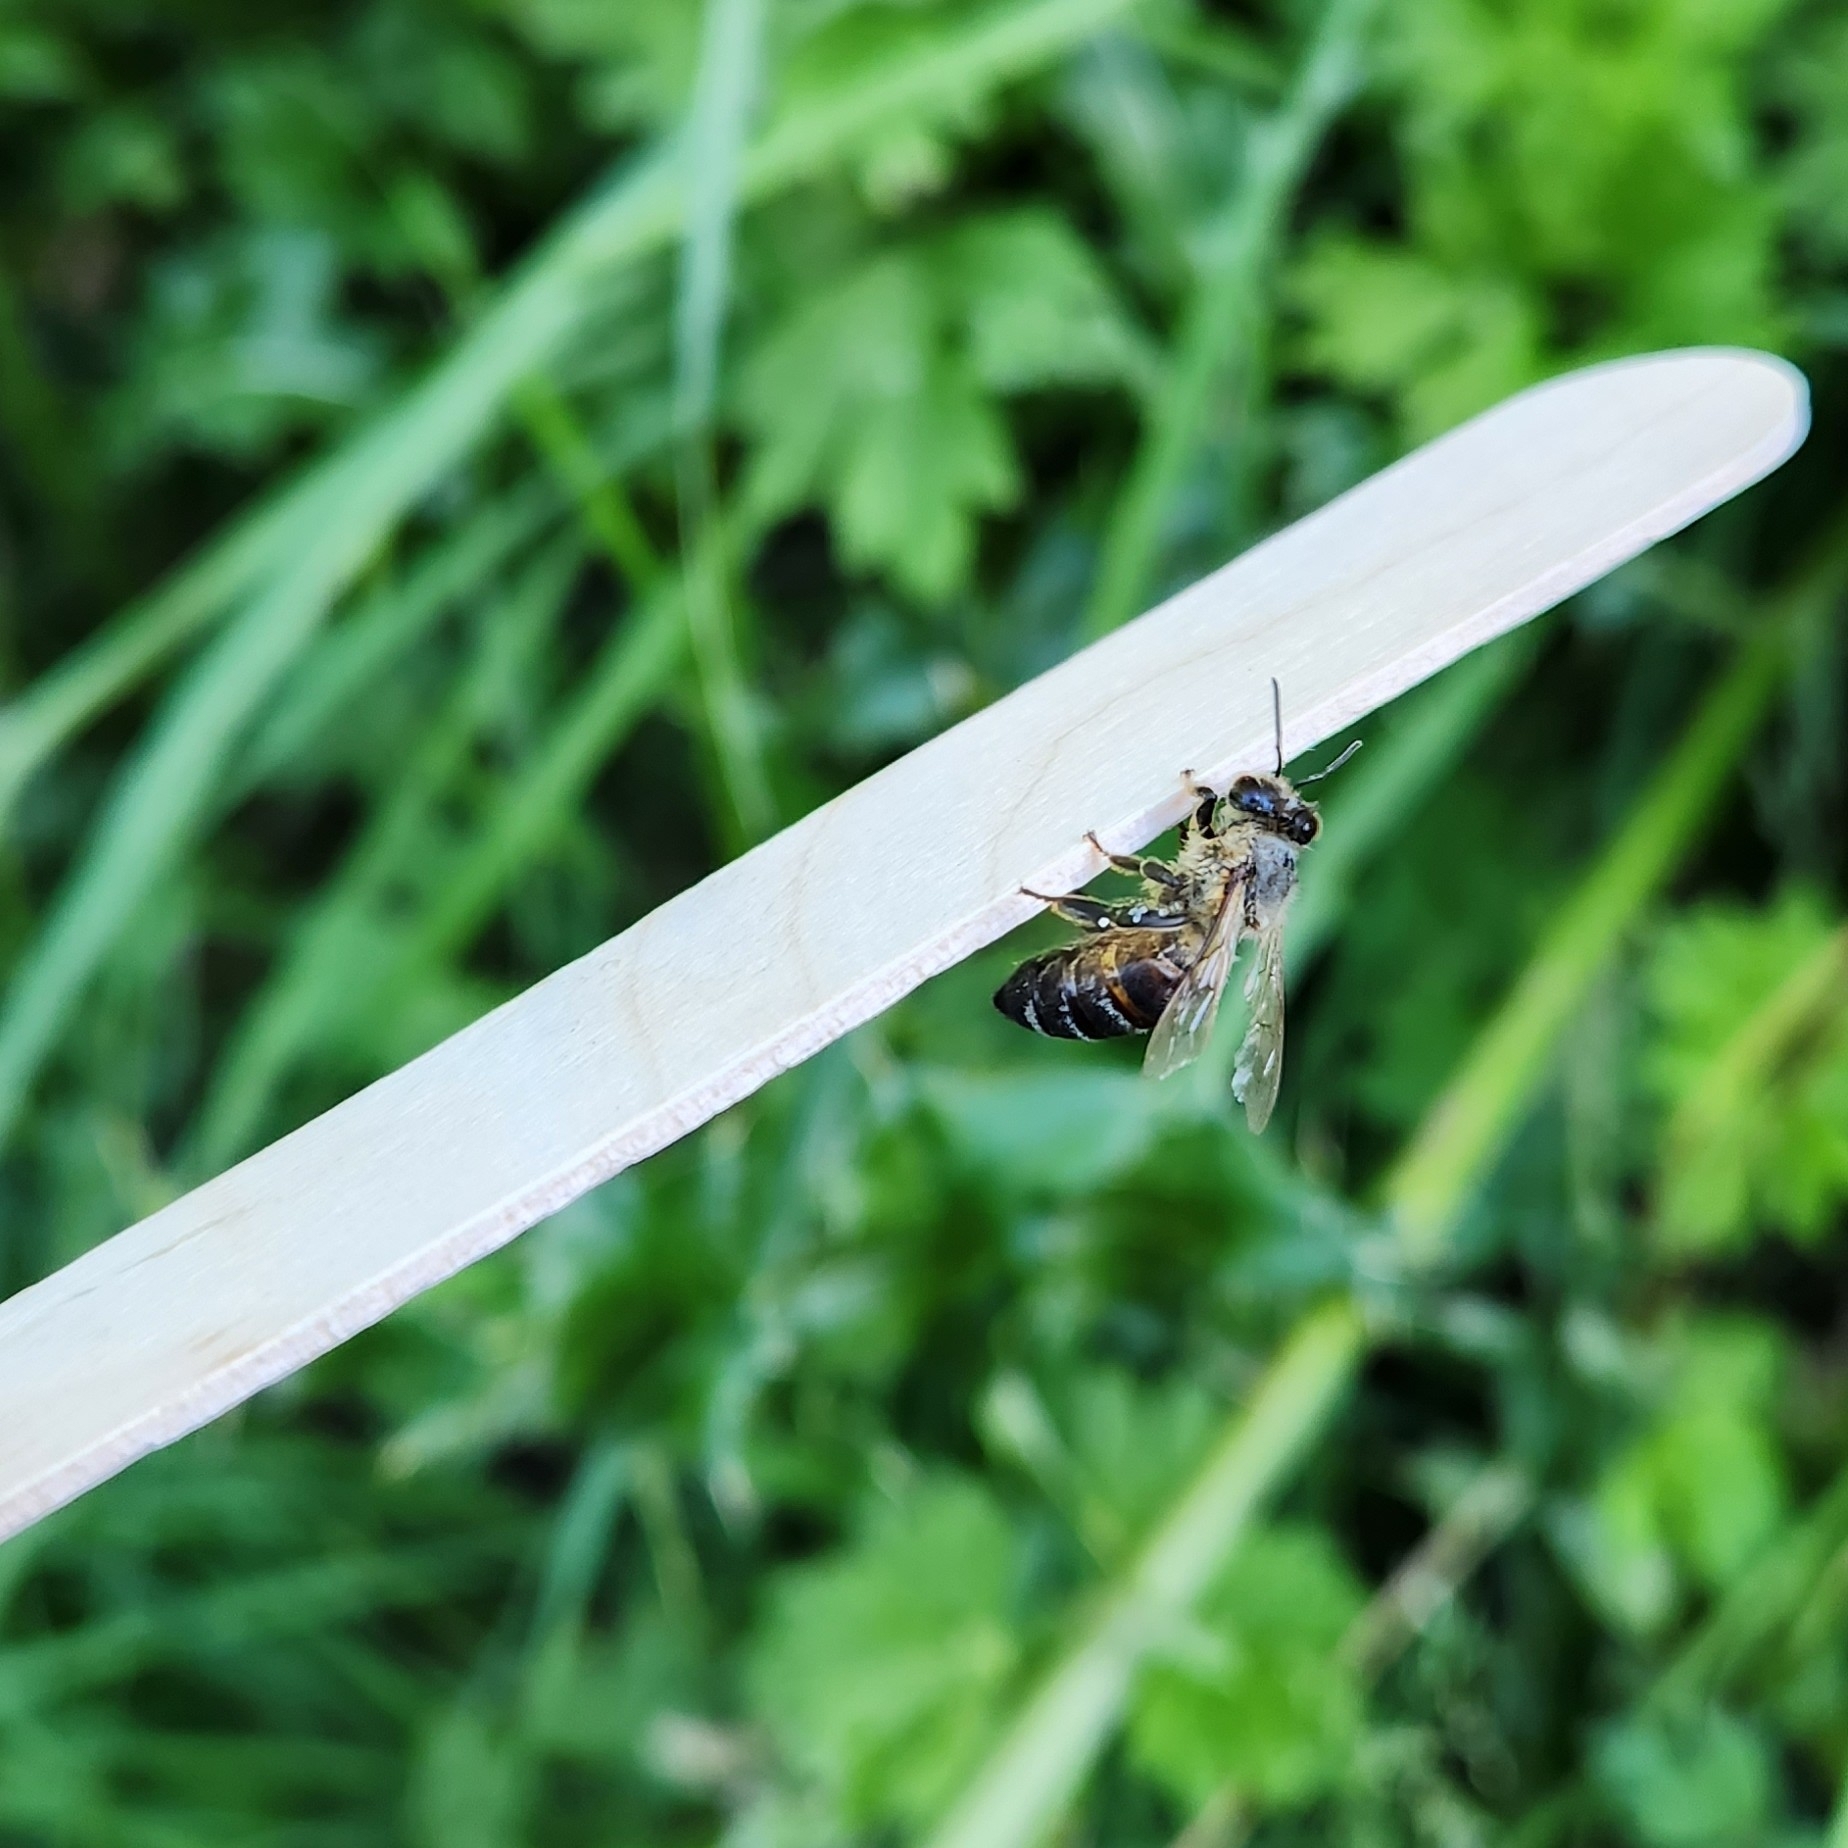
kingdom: Animalia
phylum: Arthropoda
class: Insecta
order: Hymenoptera
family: Apidae
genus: Apis
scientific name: Apis mellifera
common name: Honey bee
